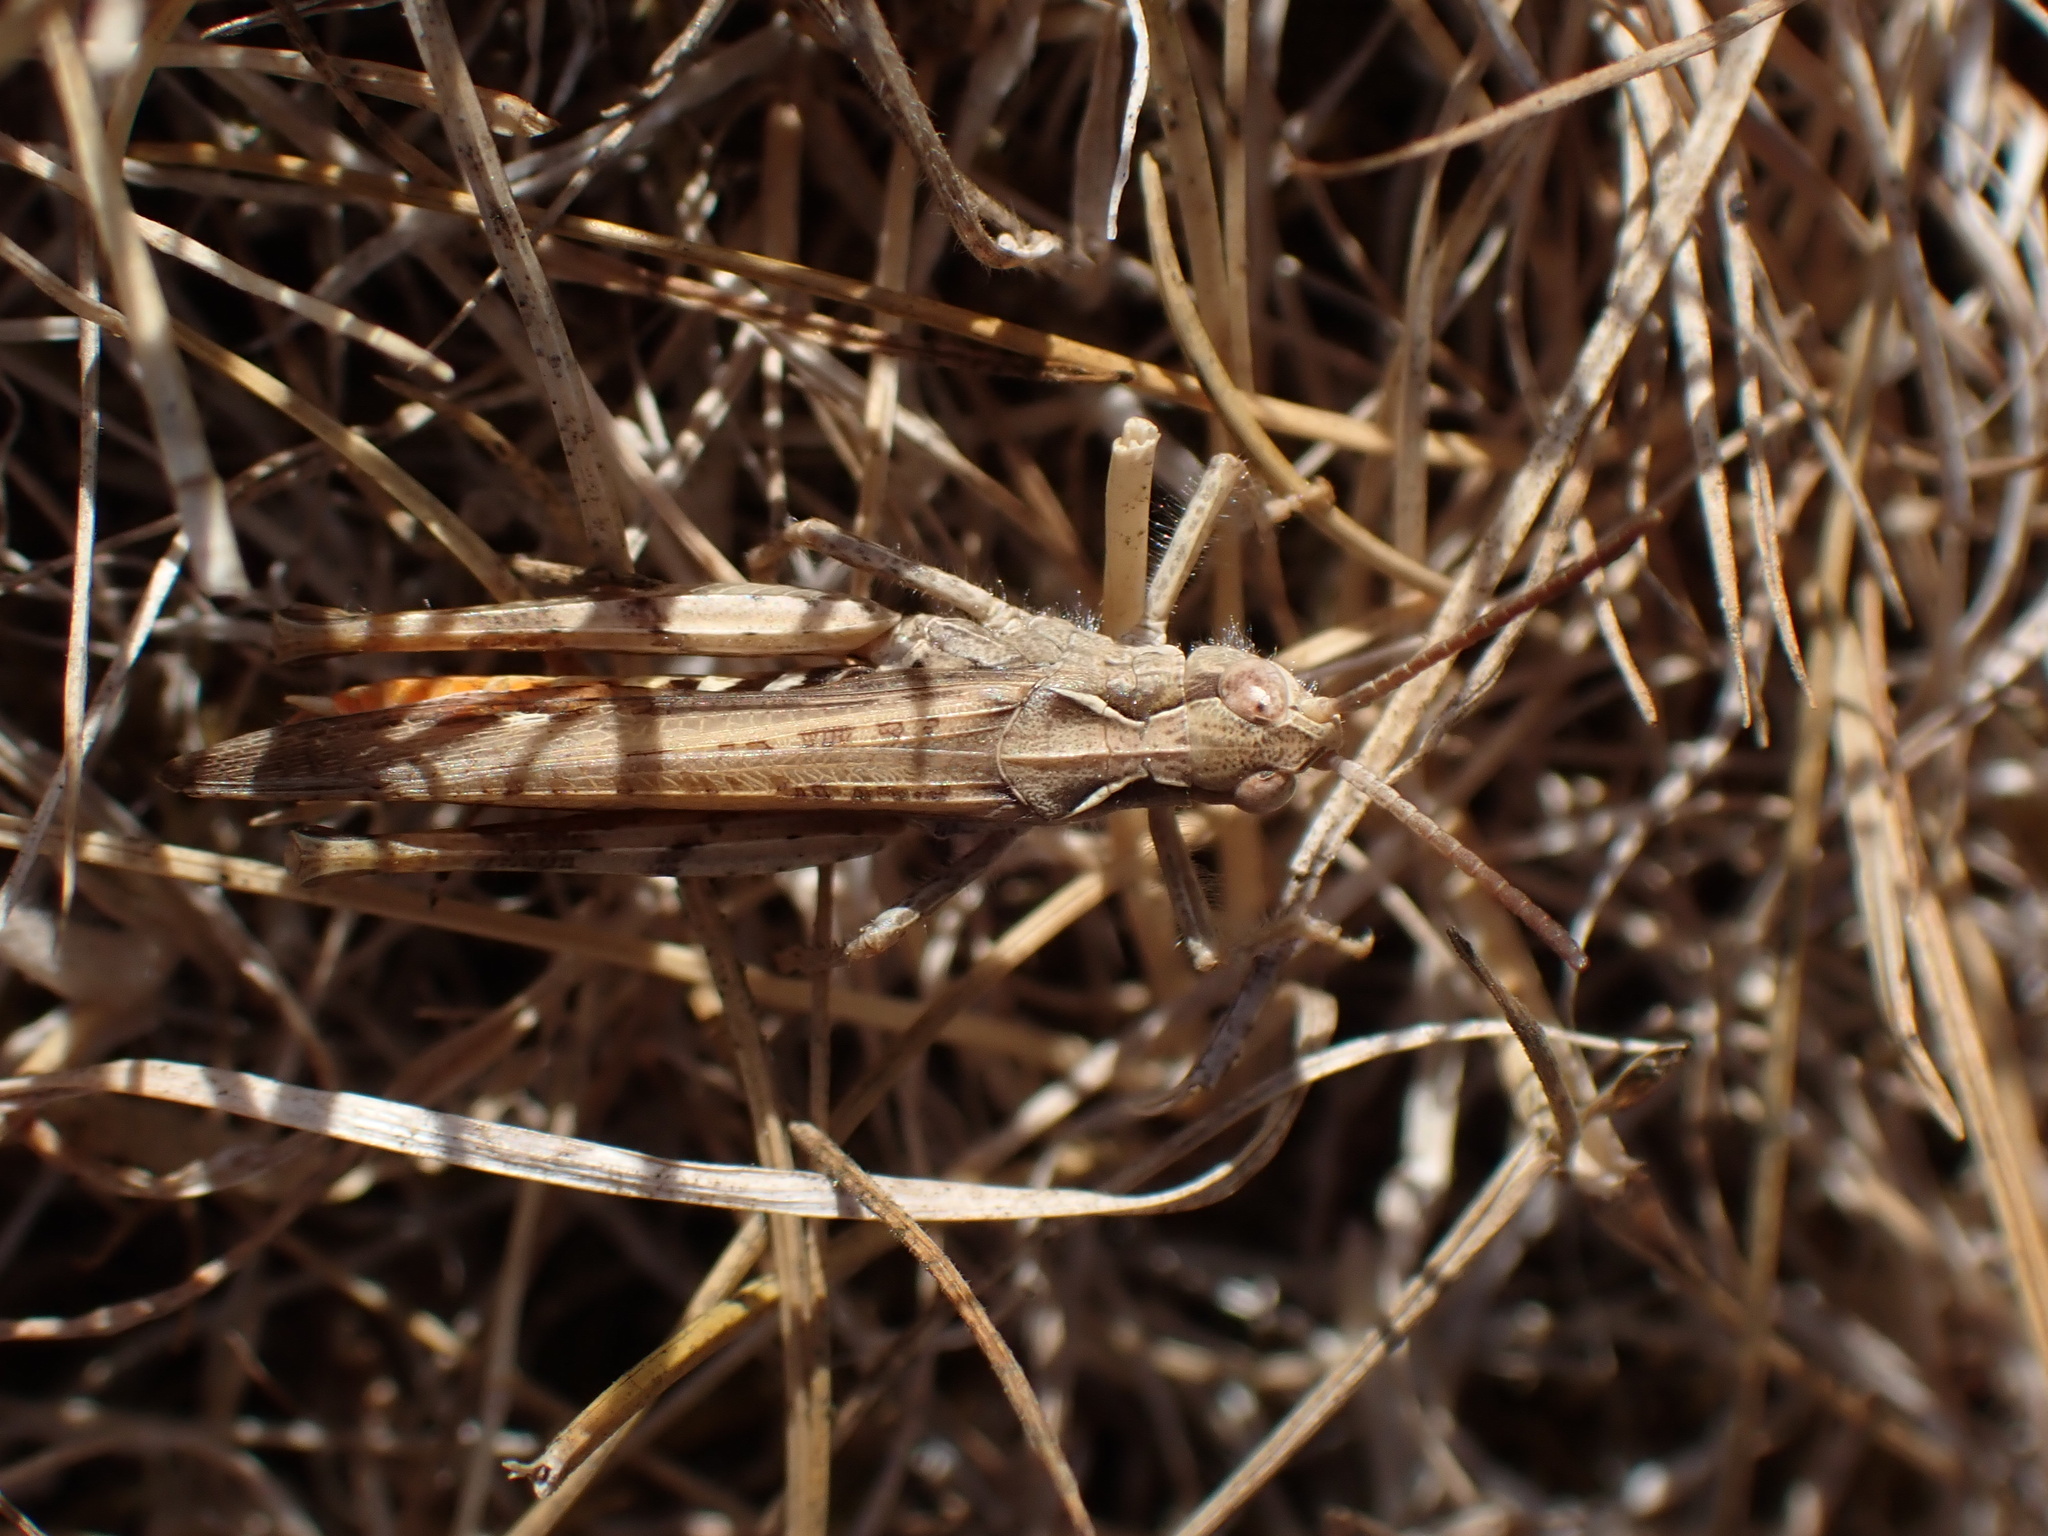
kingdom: Animalia
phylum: Arthropoda
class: Insecta
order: Orthoptera
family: Acrididae
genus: Chorthippus
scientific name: Chorthippus brunneus
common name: Field grasshopper
